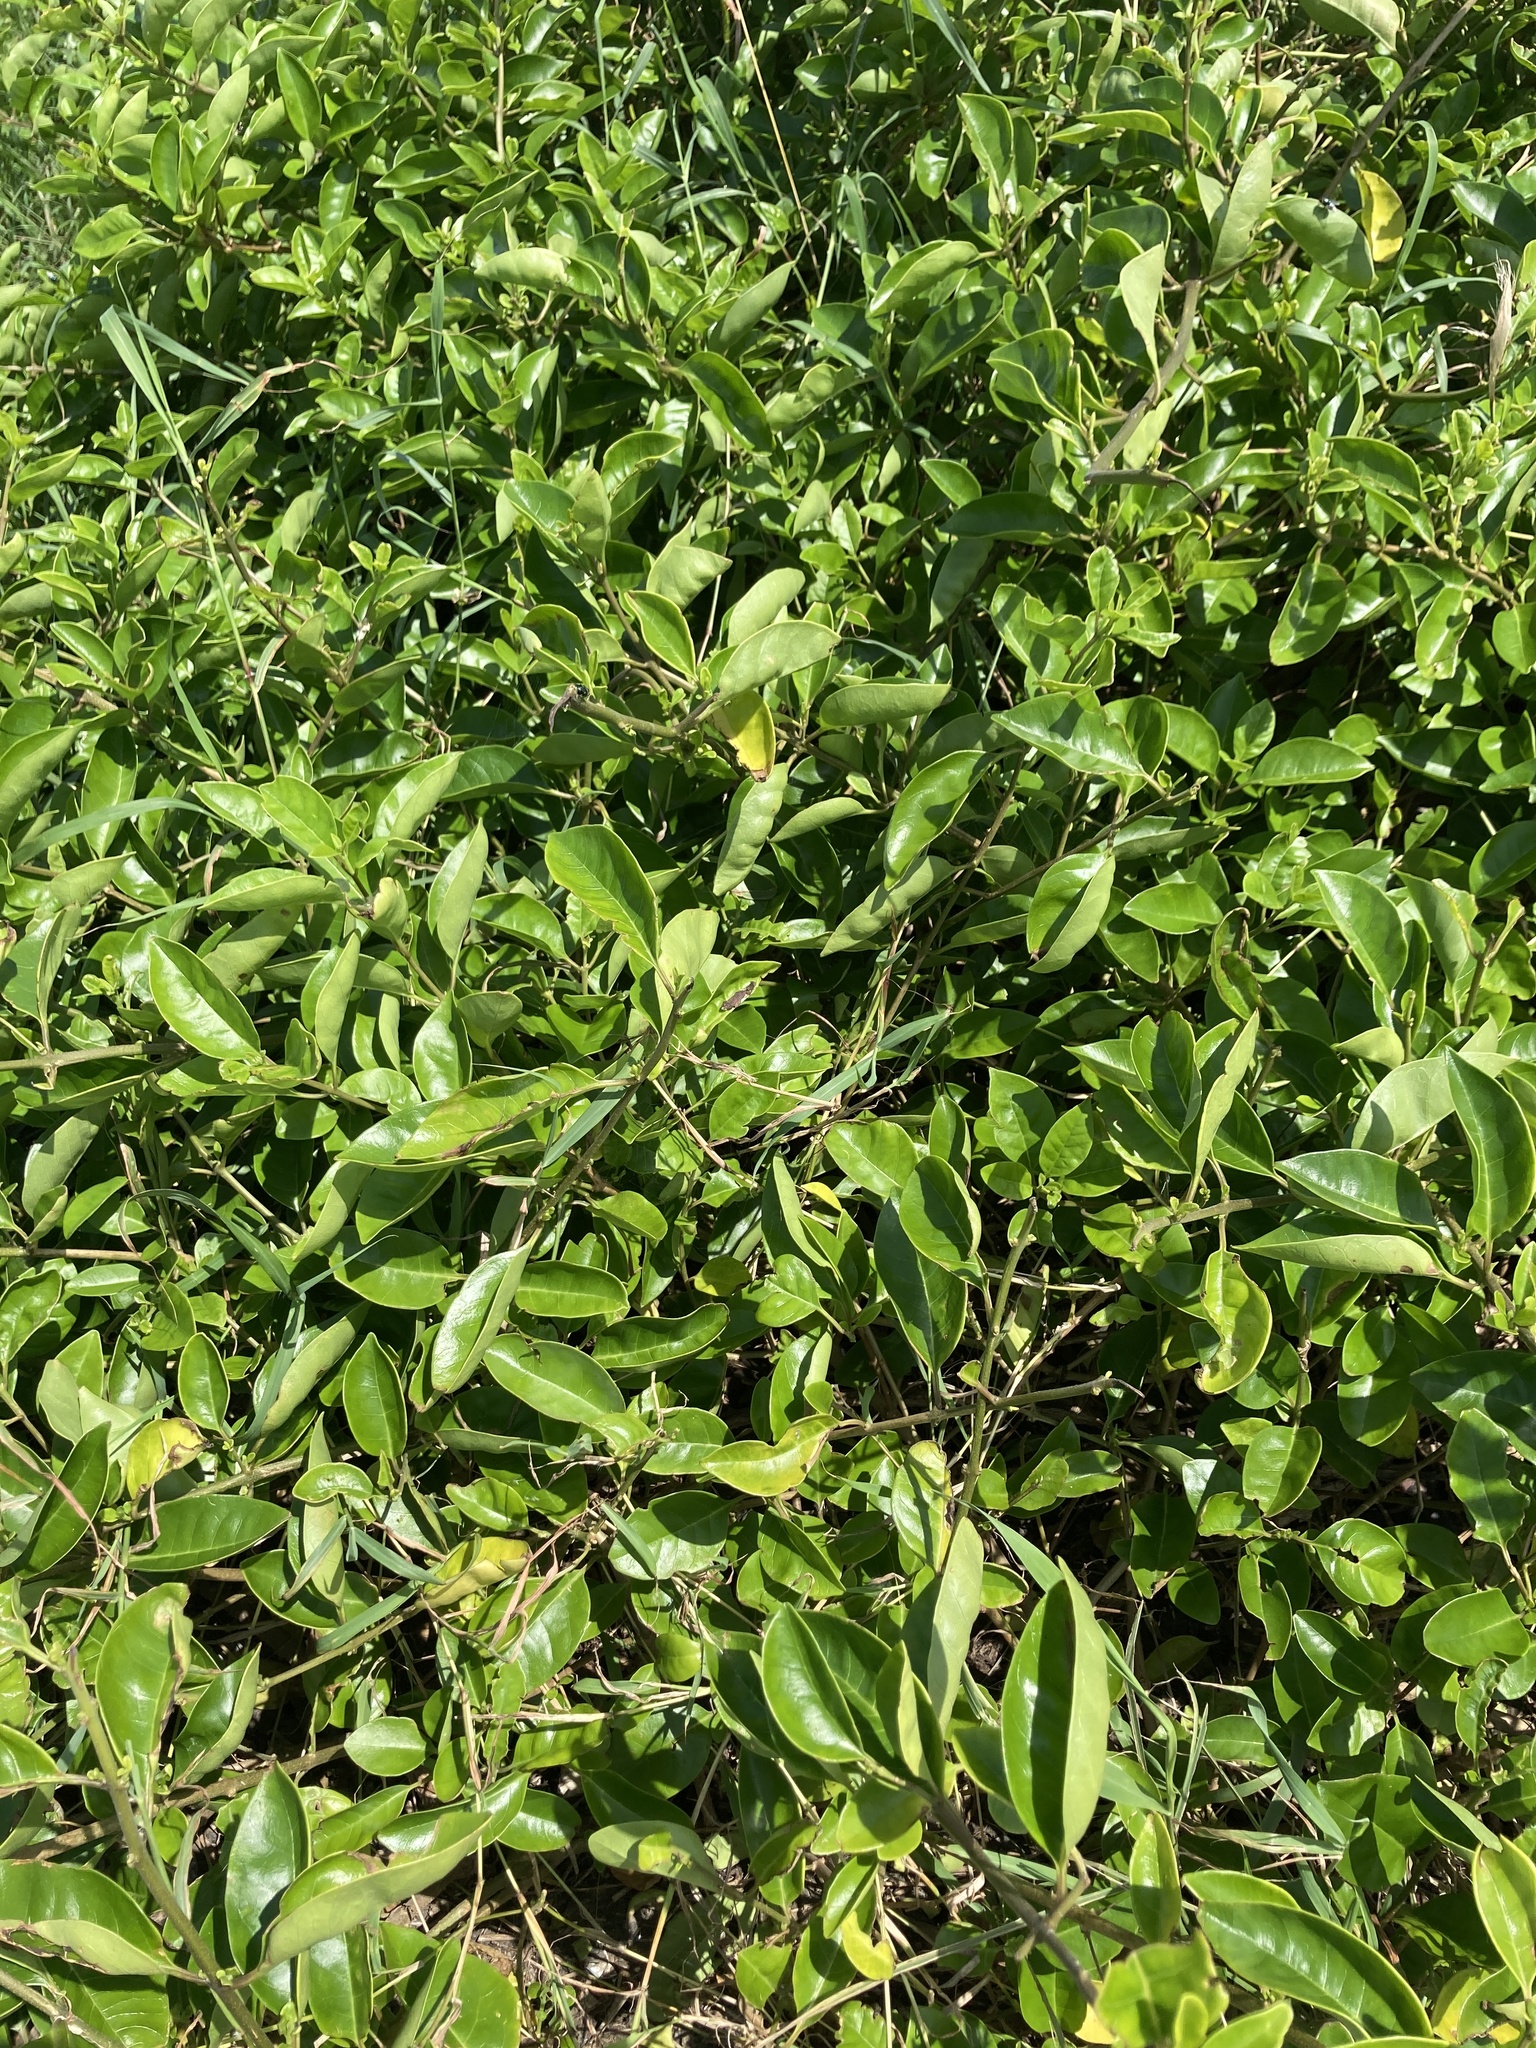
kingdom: Plantae
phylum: Tracheophyta
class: Magnoliopsida
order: Lamiales
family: Lamiaceae
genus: Volkameria
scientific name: Volkameria inermis
